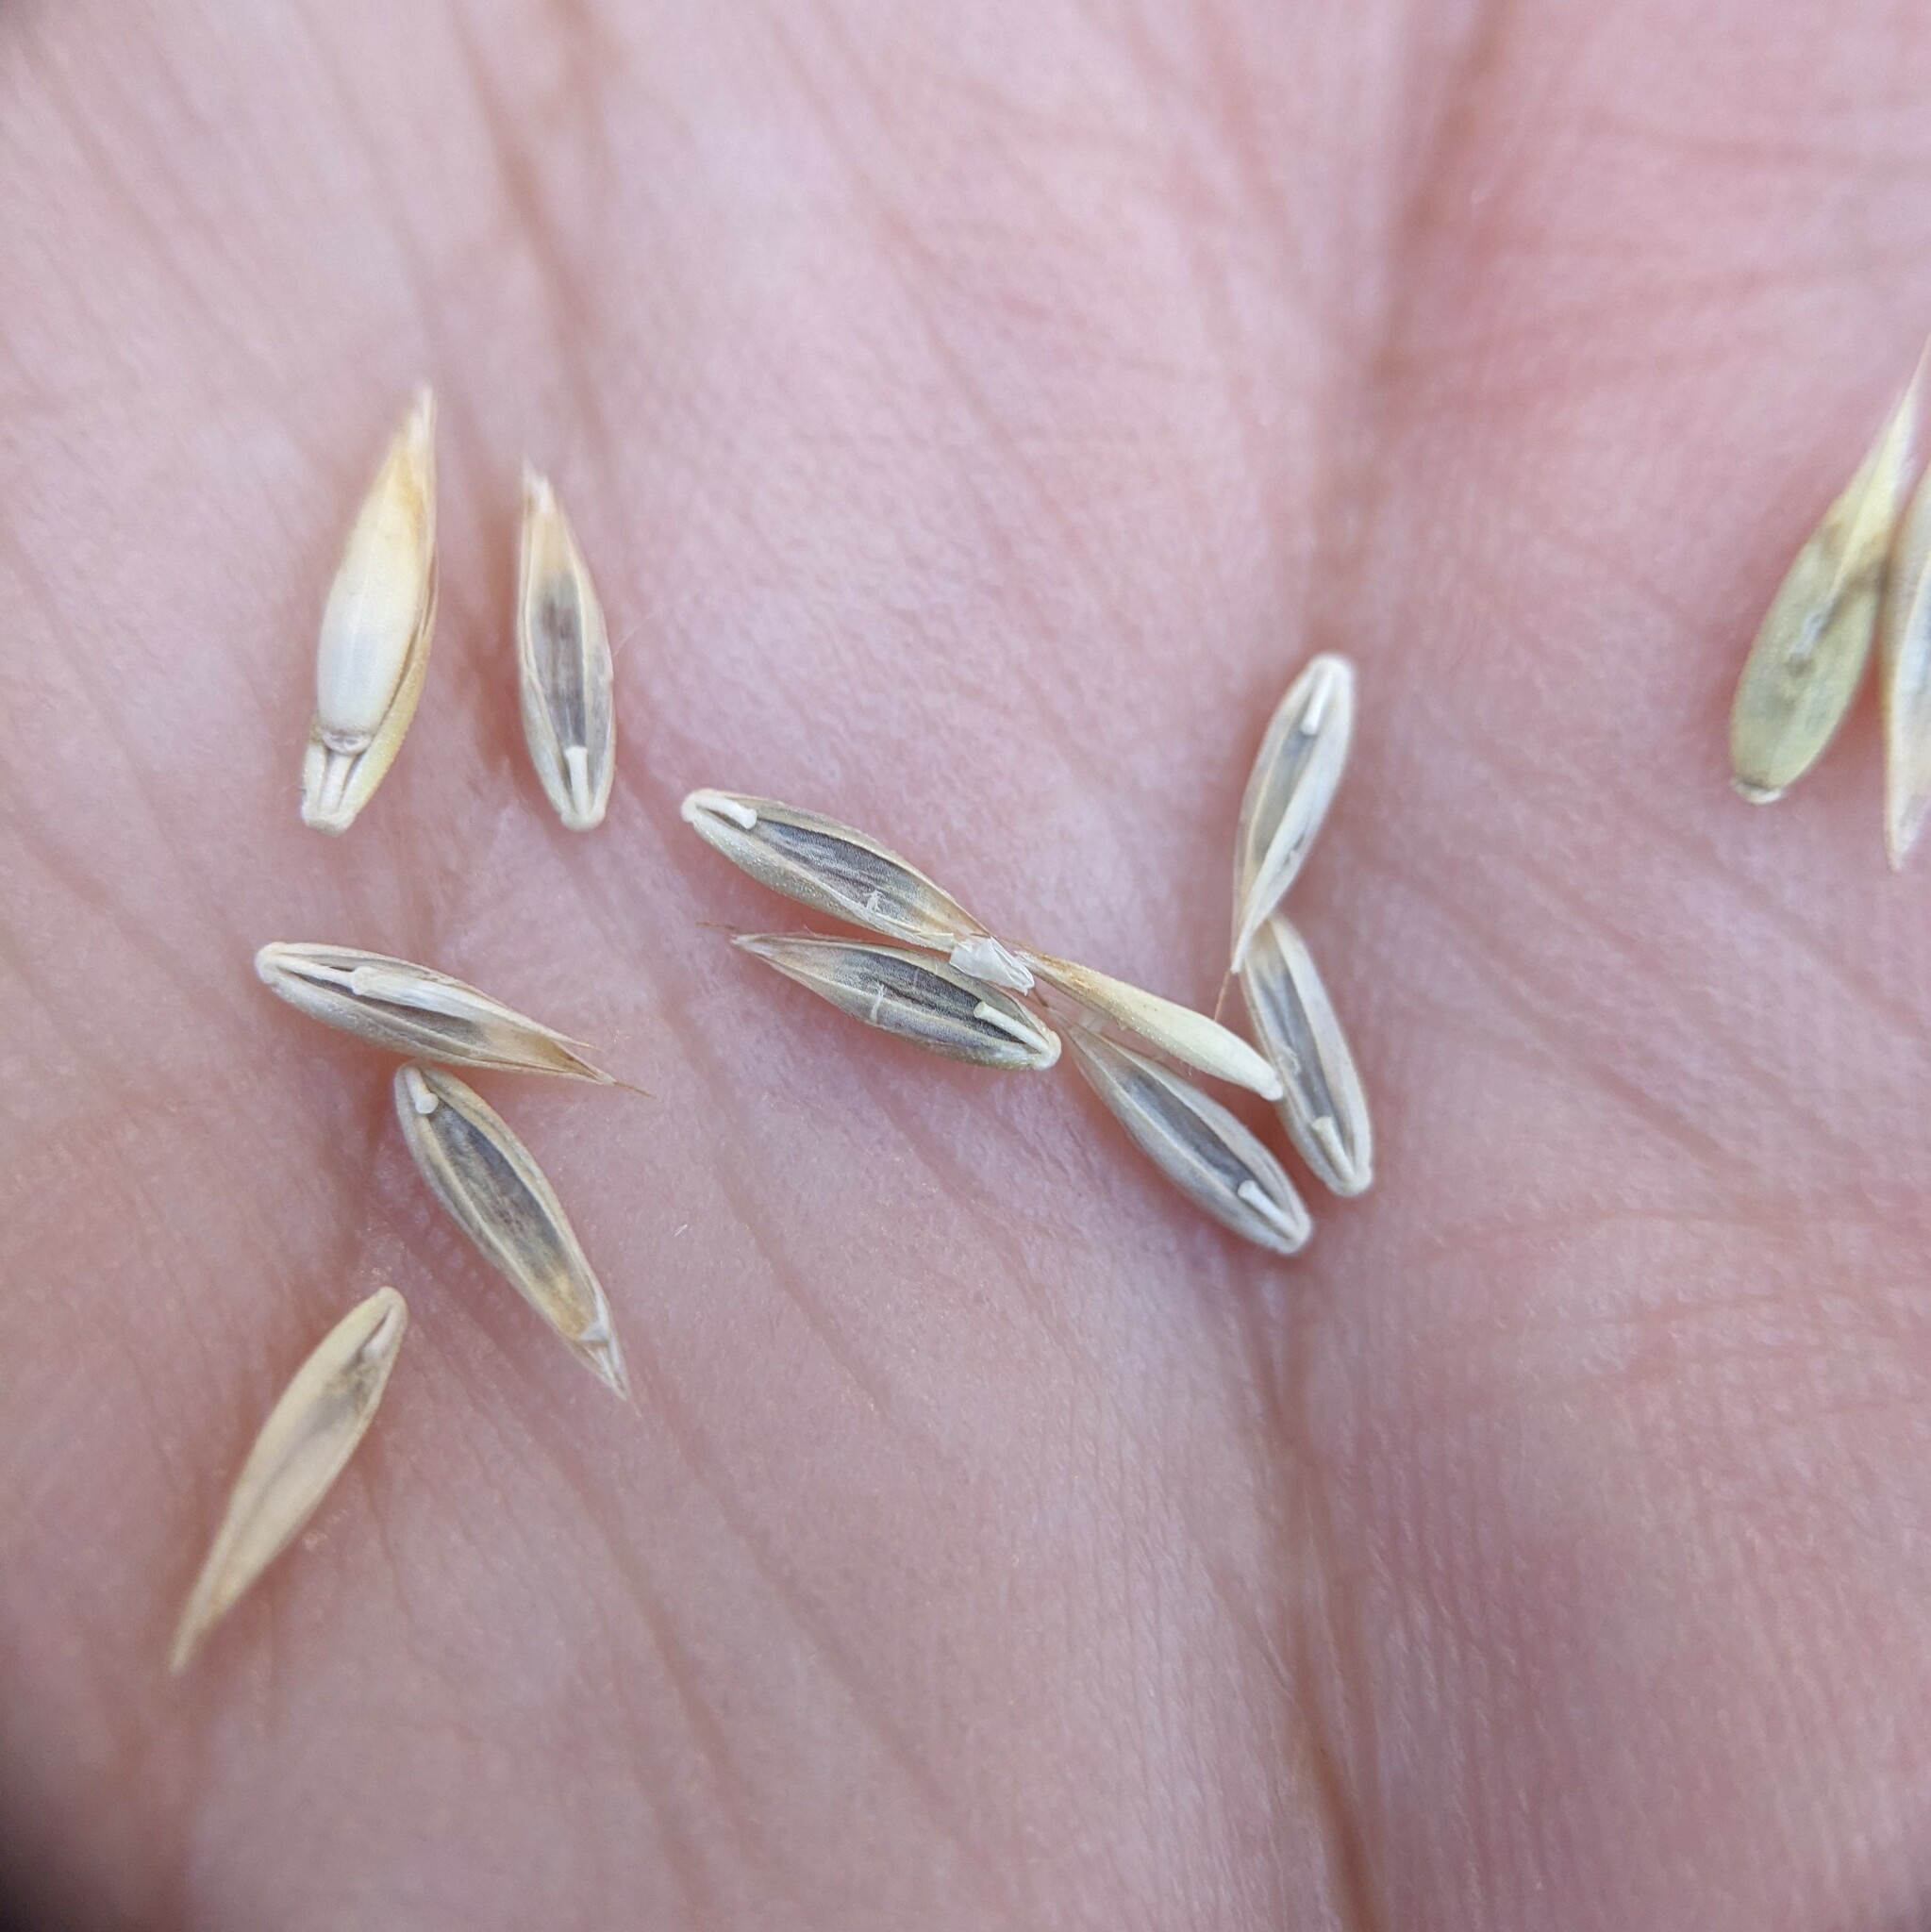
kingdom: Plantae
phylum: Tracheophyta
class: Liliopsida
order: Poales
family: Poaceae
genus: Lolium
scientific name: Lolium arundinaceum
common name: Reed fescue
